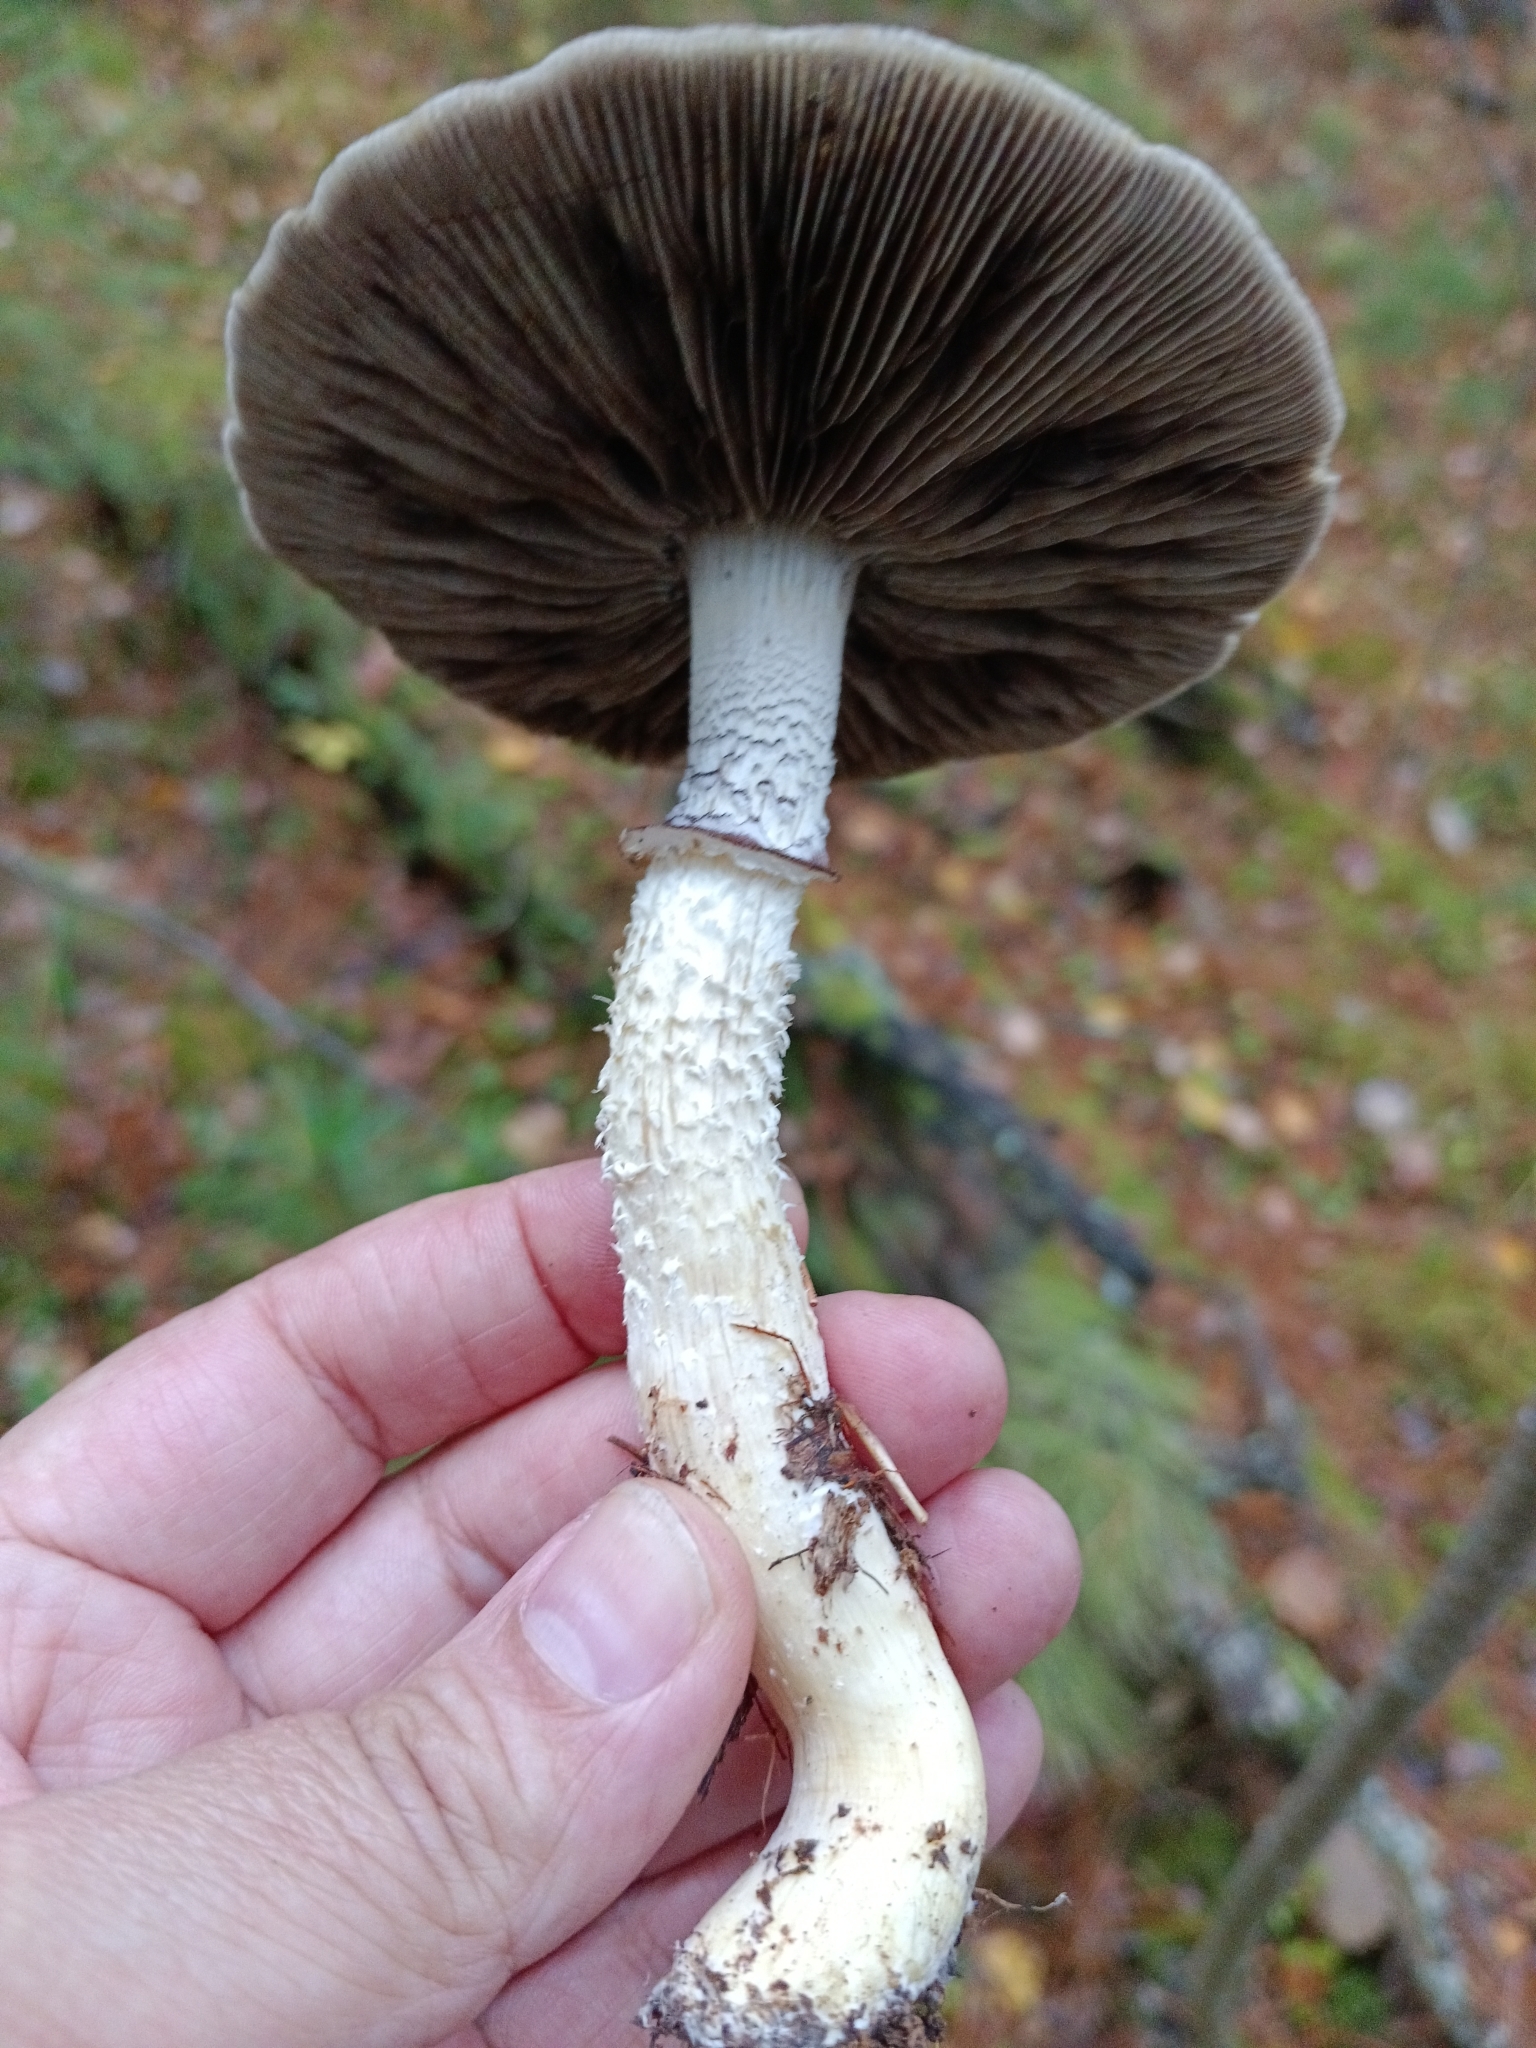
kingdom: Fungi
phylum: Basidiomycota
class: Agaricomycetes
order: Agaricales
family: Strophariaceae
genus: Stropharia
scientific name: Stropharia hornemannii
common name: Conifer roundhead
